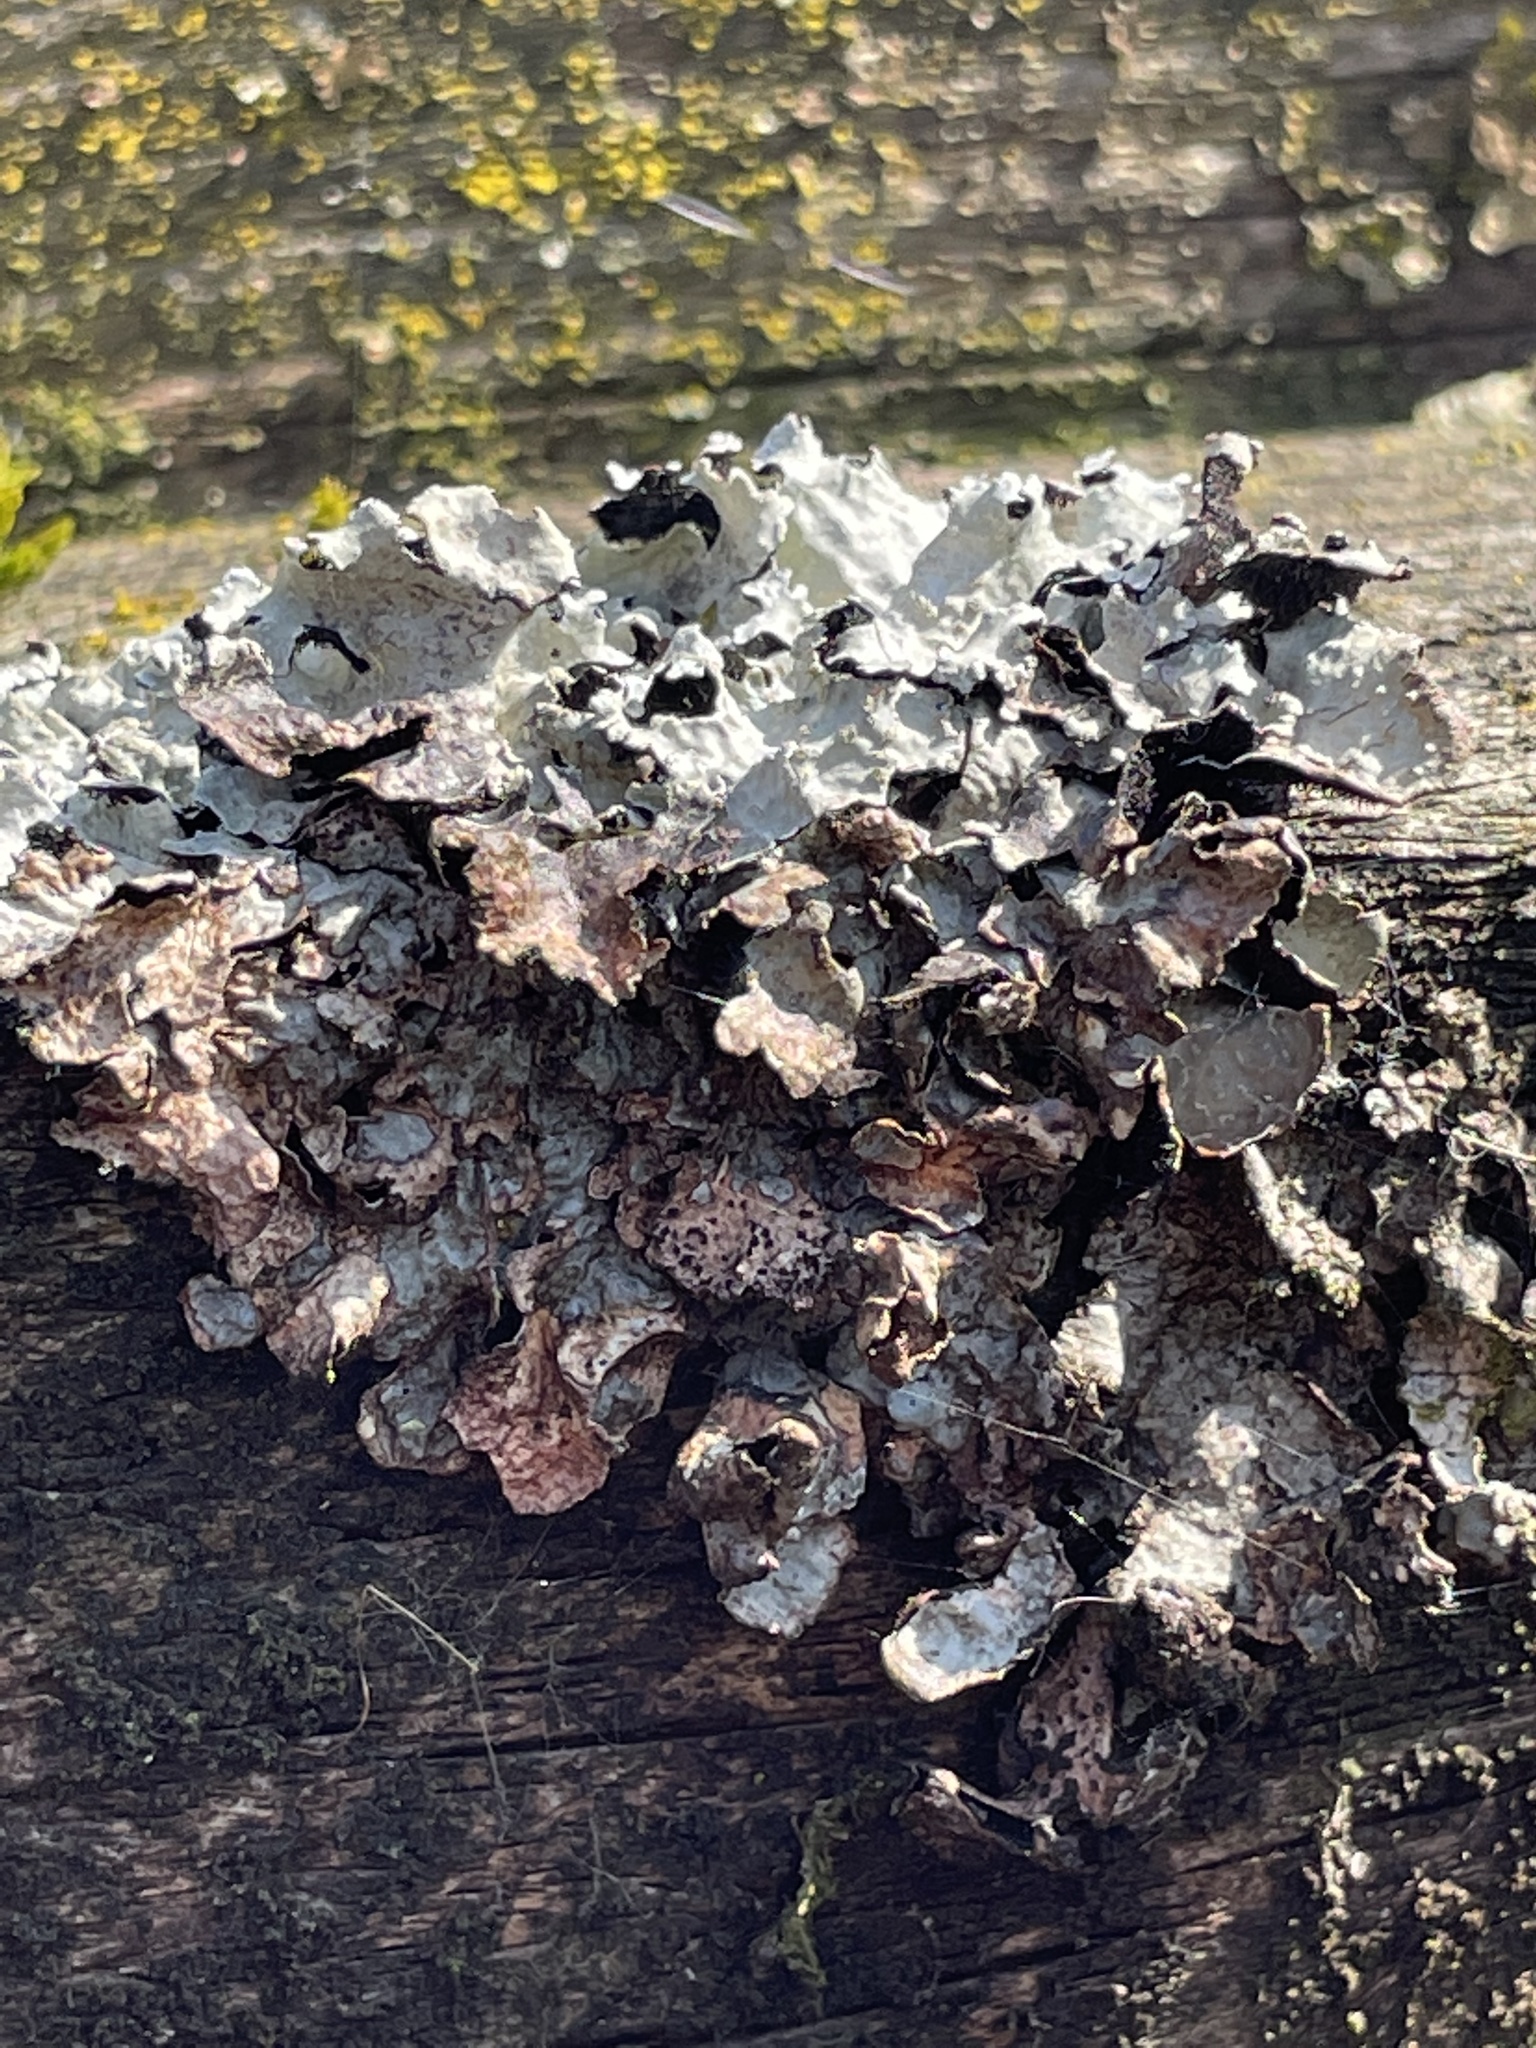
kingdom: Fungi
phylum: Ascomycota
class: Lecanoromycetes
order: Lecanorales
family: Parmeliaceae
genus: Parmelia
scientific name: Parmelia sulcata
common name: Netted shield lichen
